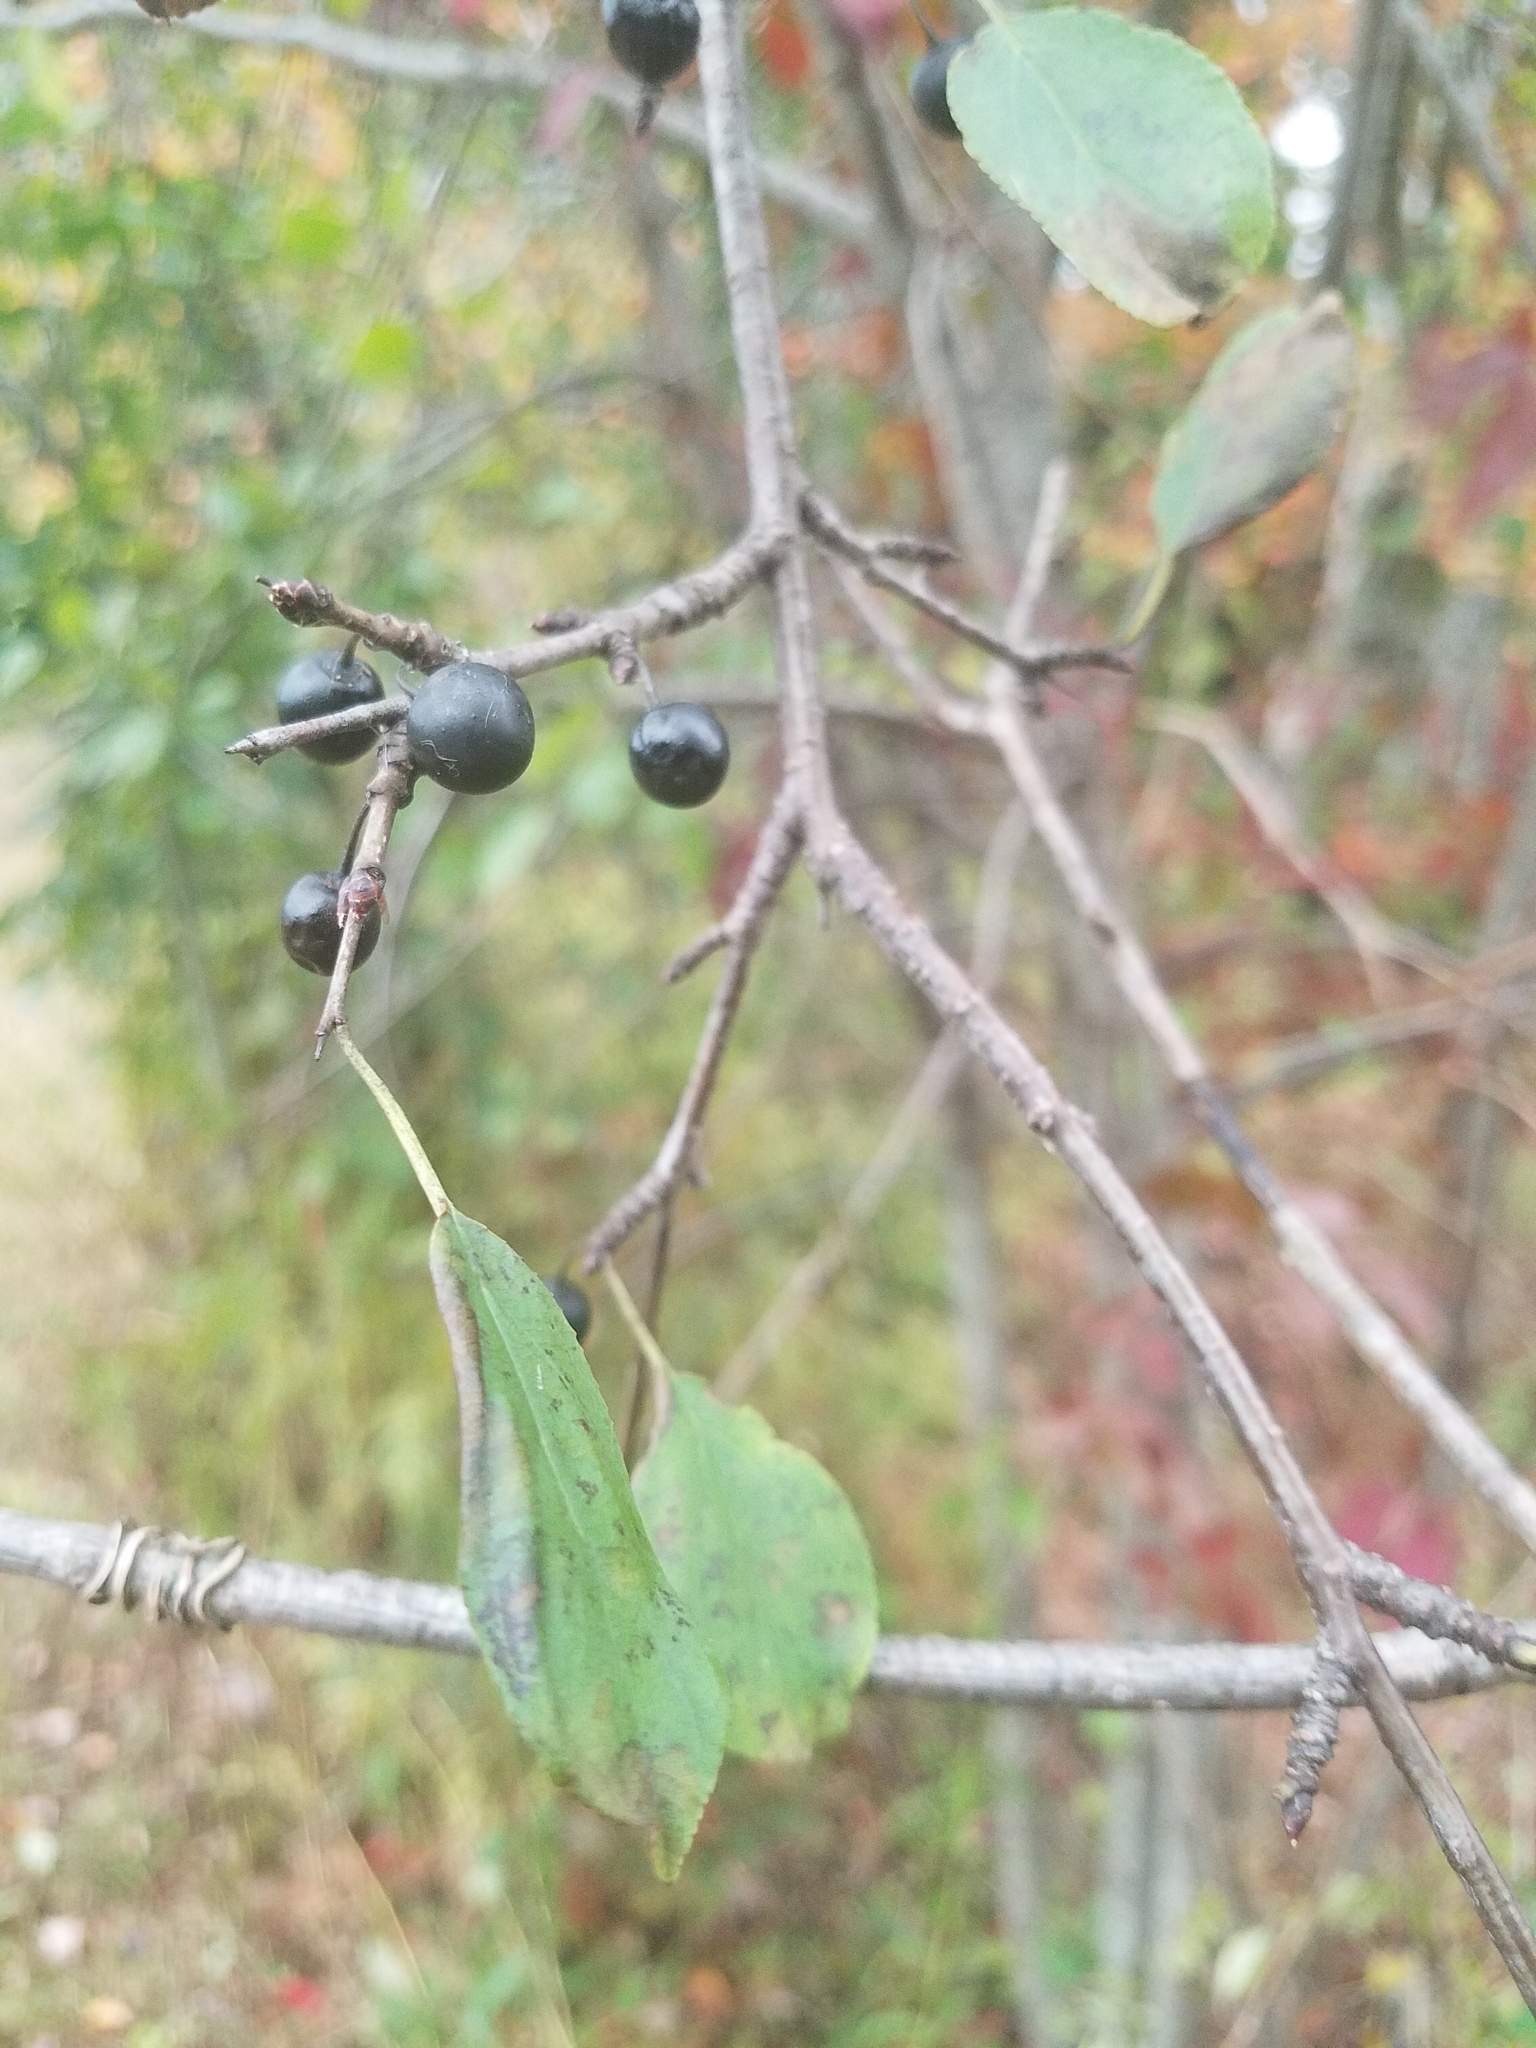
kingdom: Plantae
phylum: Tracheophyta
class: Magnoliopsida
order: Rosales
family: Rhamnaceae
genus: Rhamnus
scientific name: Rhamnus cathartica
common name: Common buckthorn
